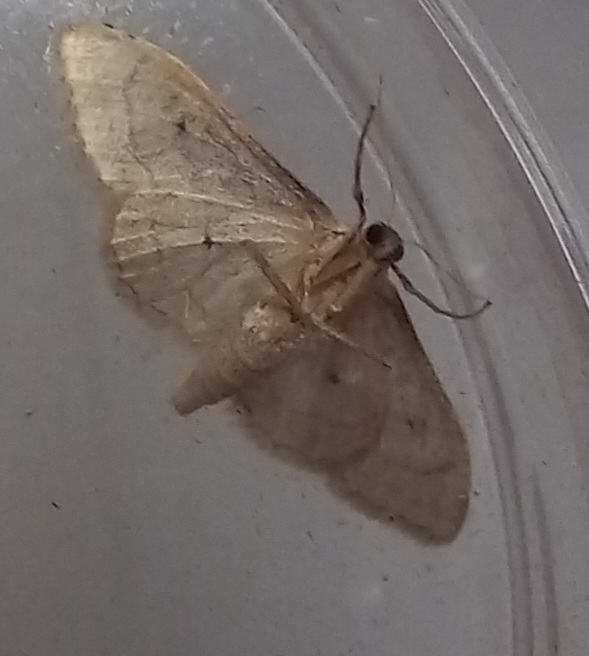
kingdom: Animalia
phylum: Arthropoda
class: Insecta
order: Lepidoptera
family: Geometridae
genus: Idaea
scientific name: Idaea aversata
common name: Riband wave
